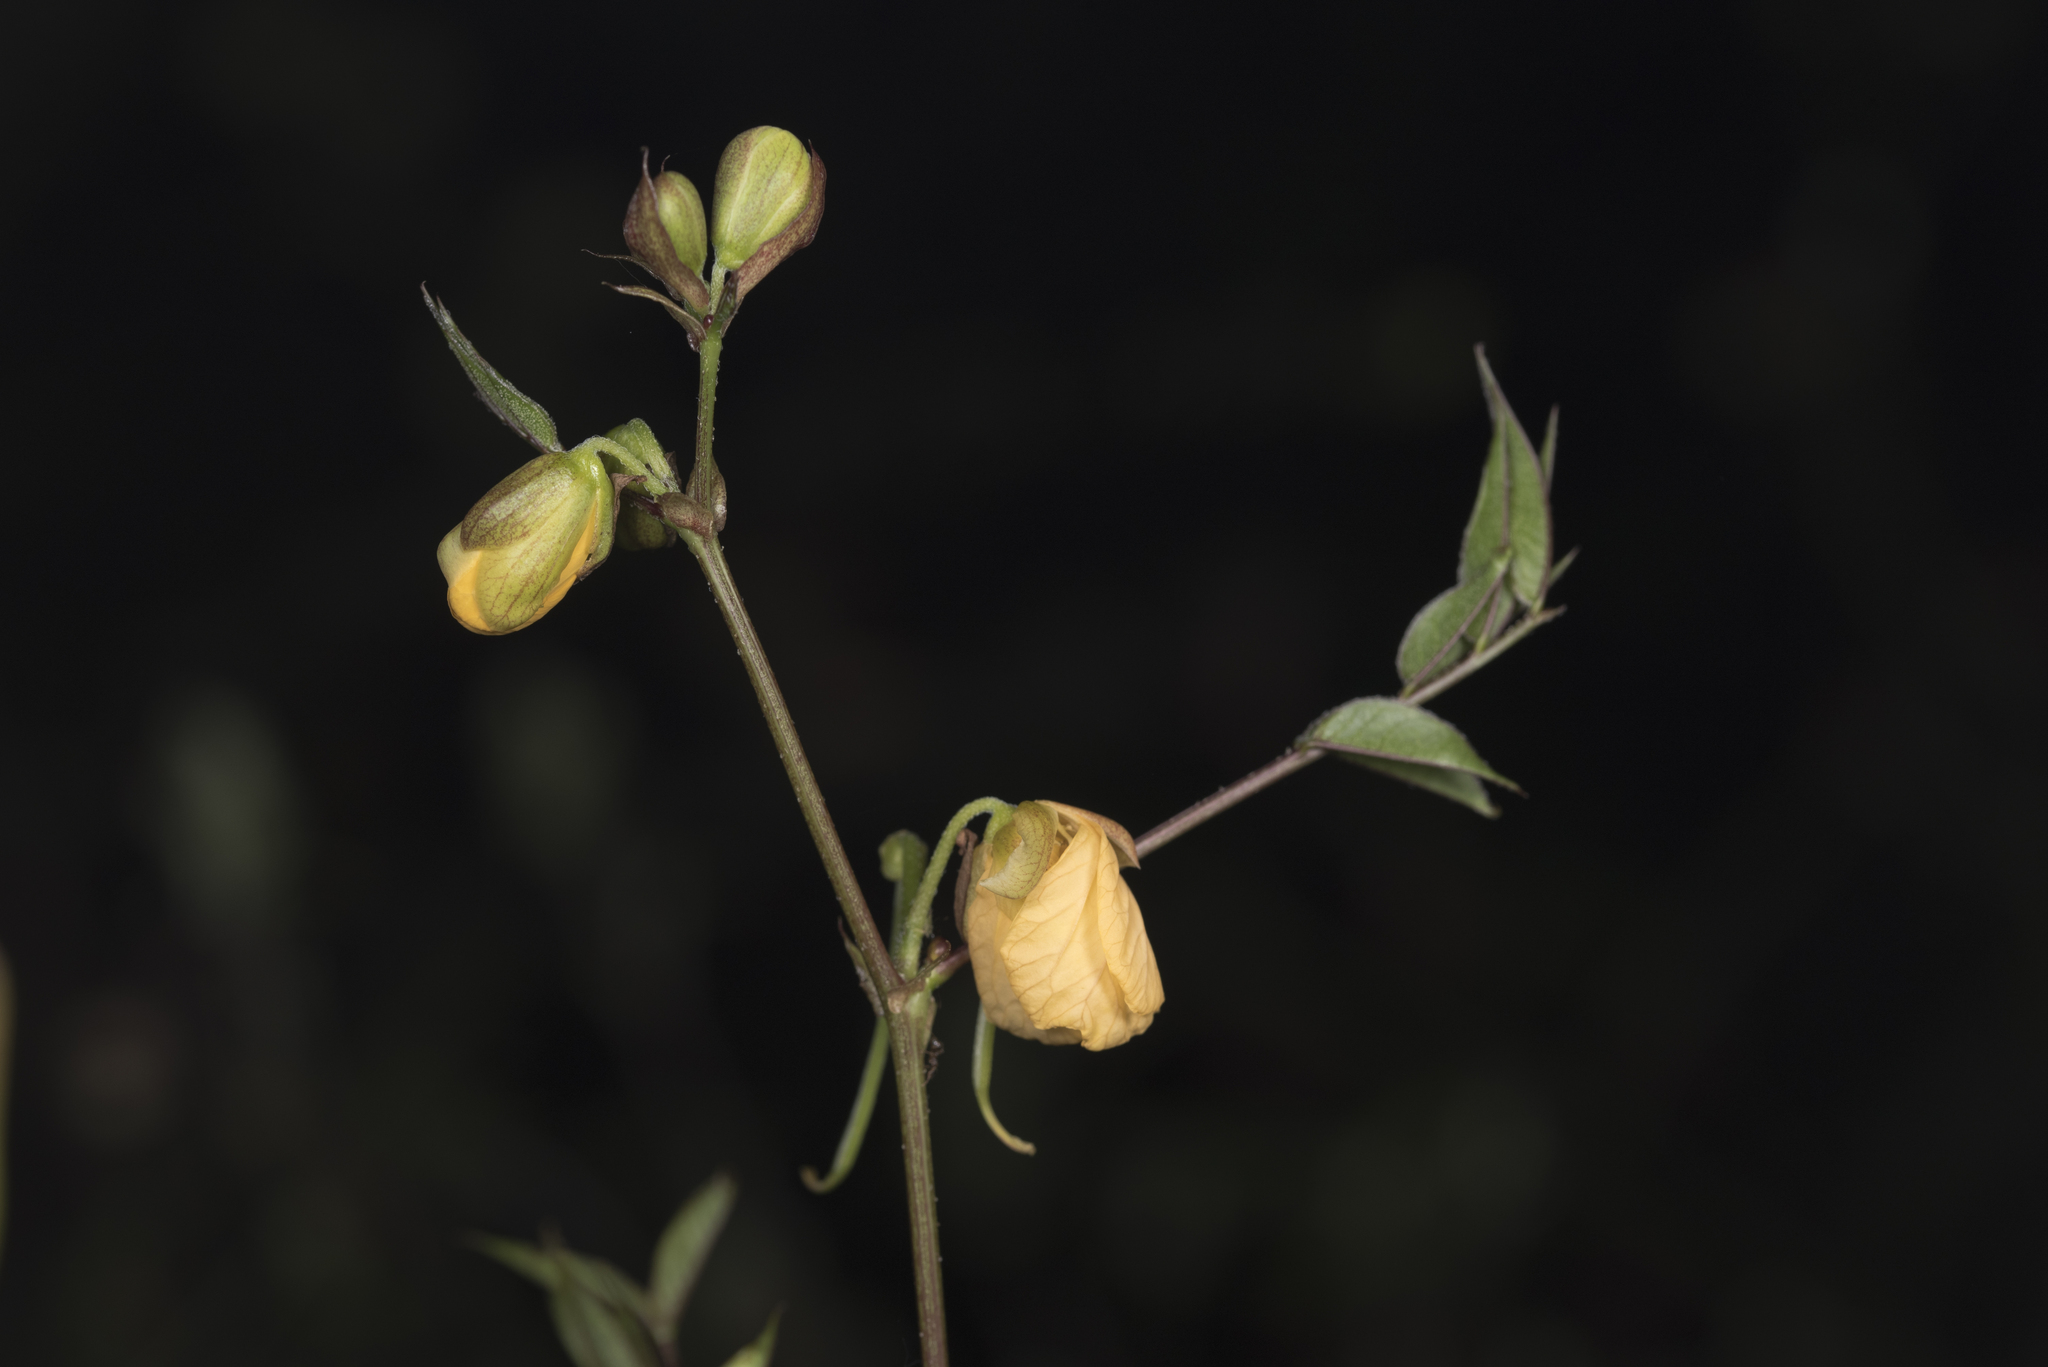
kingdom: Plantae
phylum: Tracheophyta
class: Magnoliopsida
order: Fabales
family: Fabaceae
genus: Senna
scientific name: Senna occidentalis
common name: Septicweed
